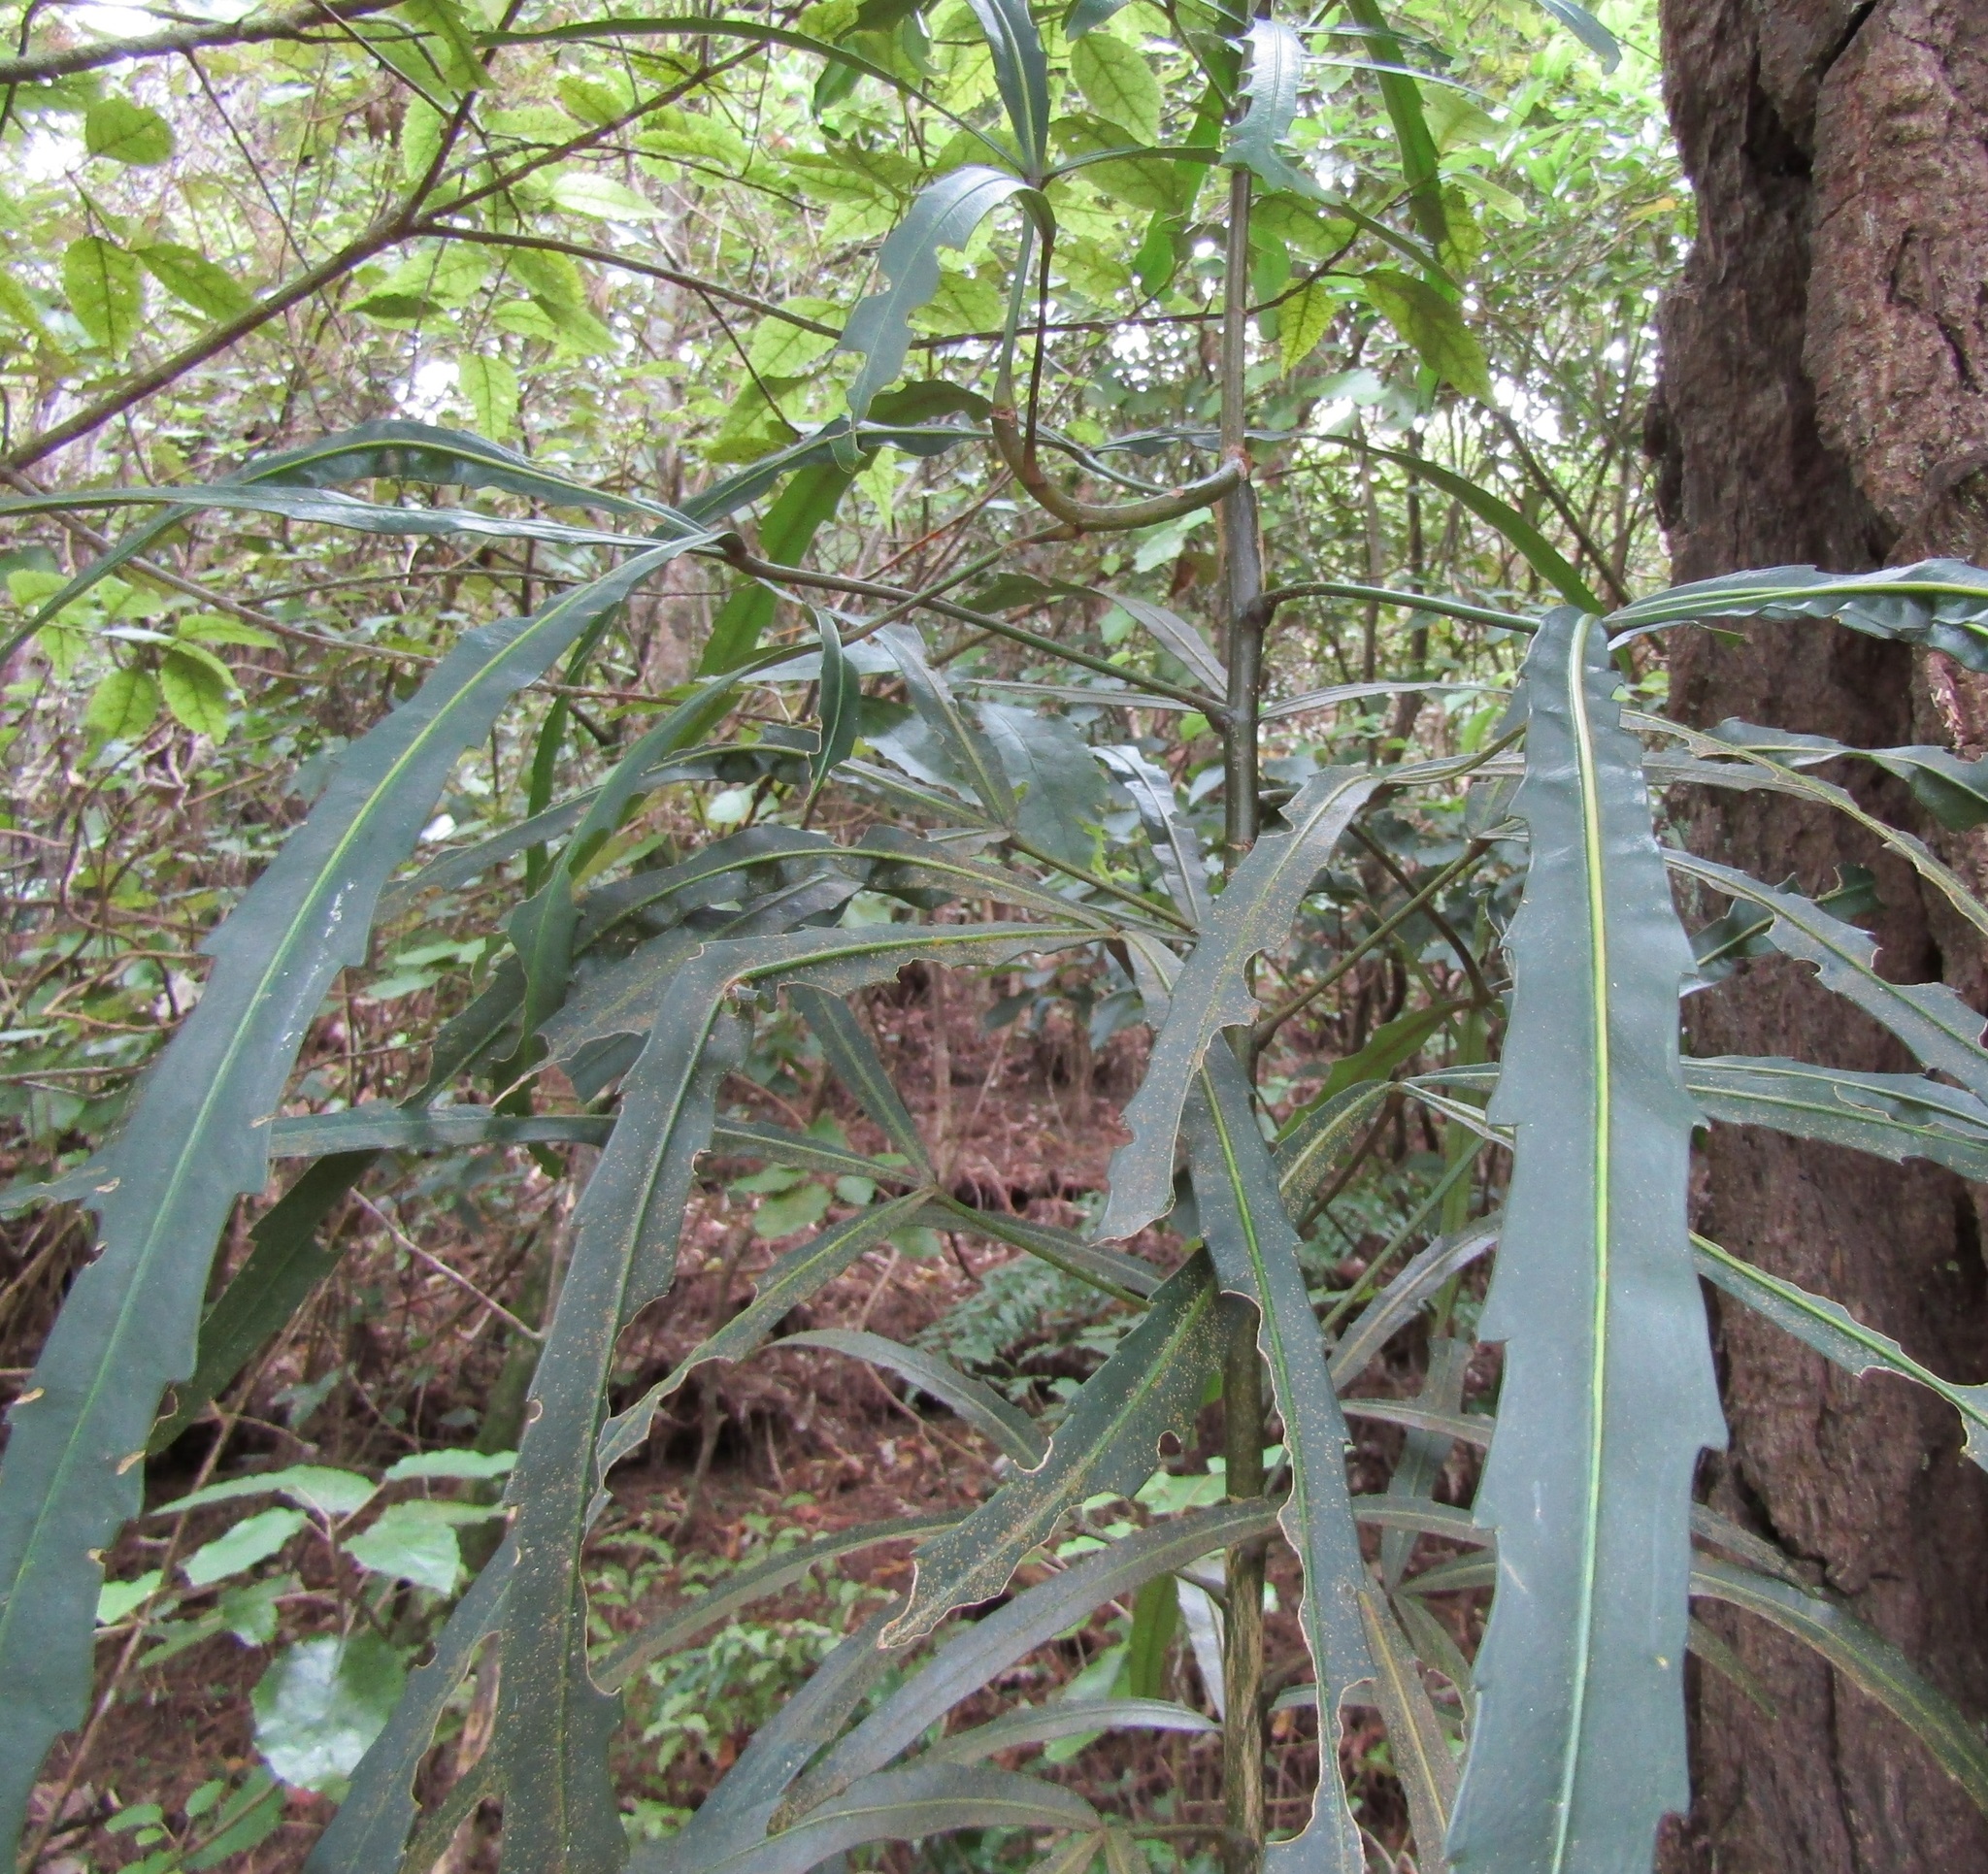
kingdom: Plantae
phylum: Tracheophyta
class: Magnoliopsida
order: Apiales
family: Araliaceae
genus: Pseudopanax
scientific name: Pseudopanax
